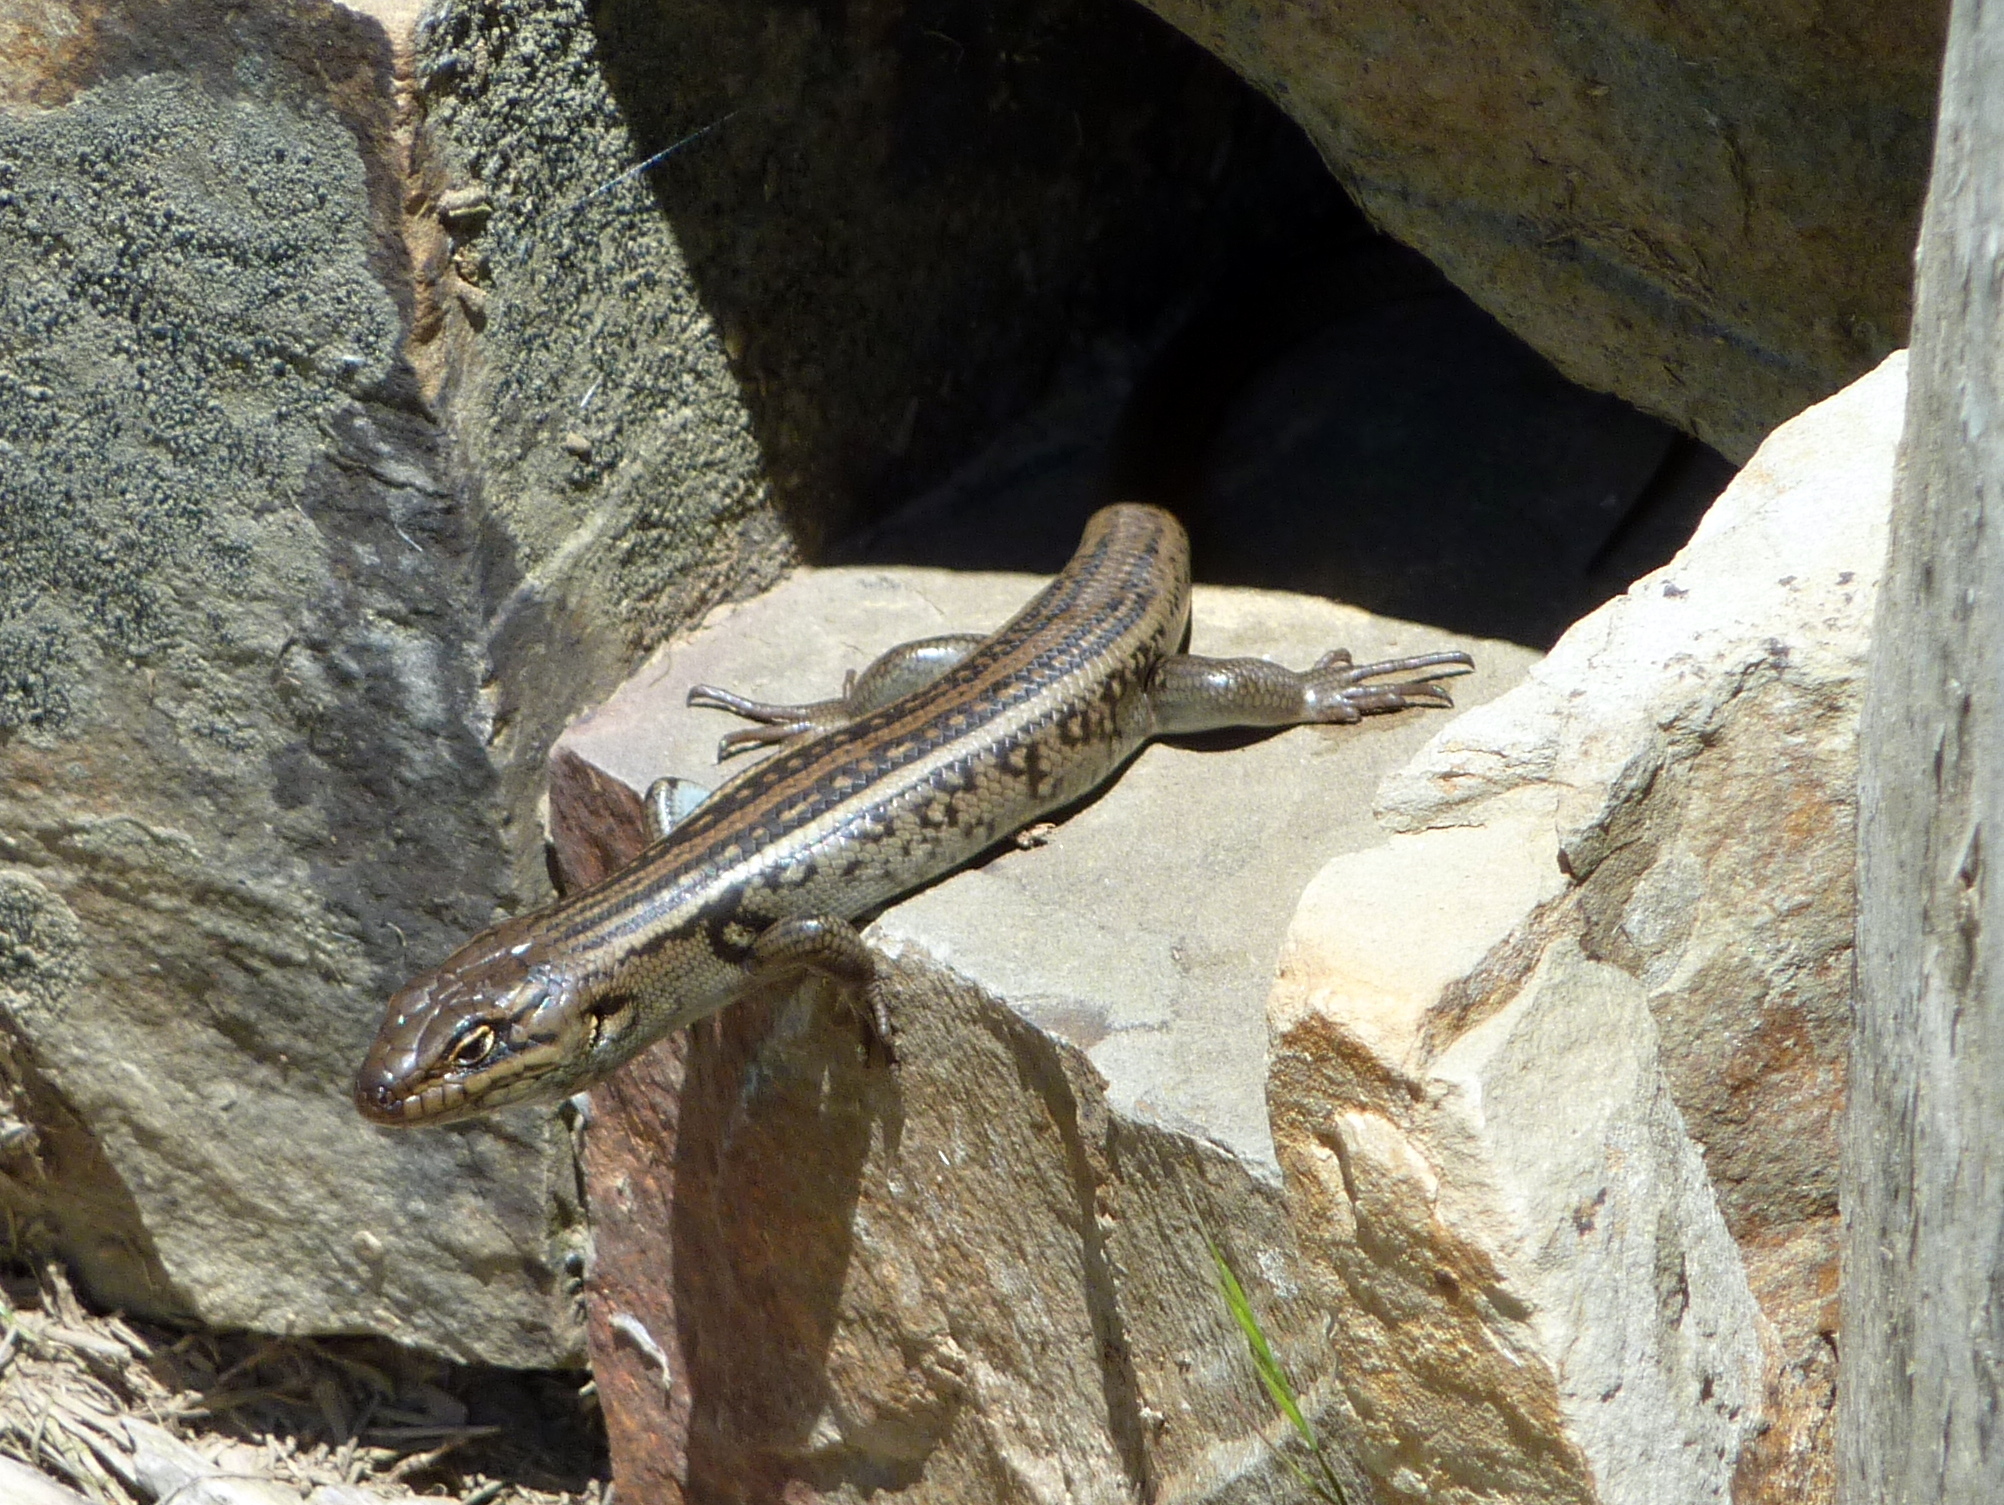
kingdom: Animalia
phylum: Chordata
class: Squamata
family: Scincidae
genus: Liopholis
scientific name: Liopholis whitii
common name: White's rock-skink
